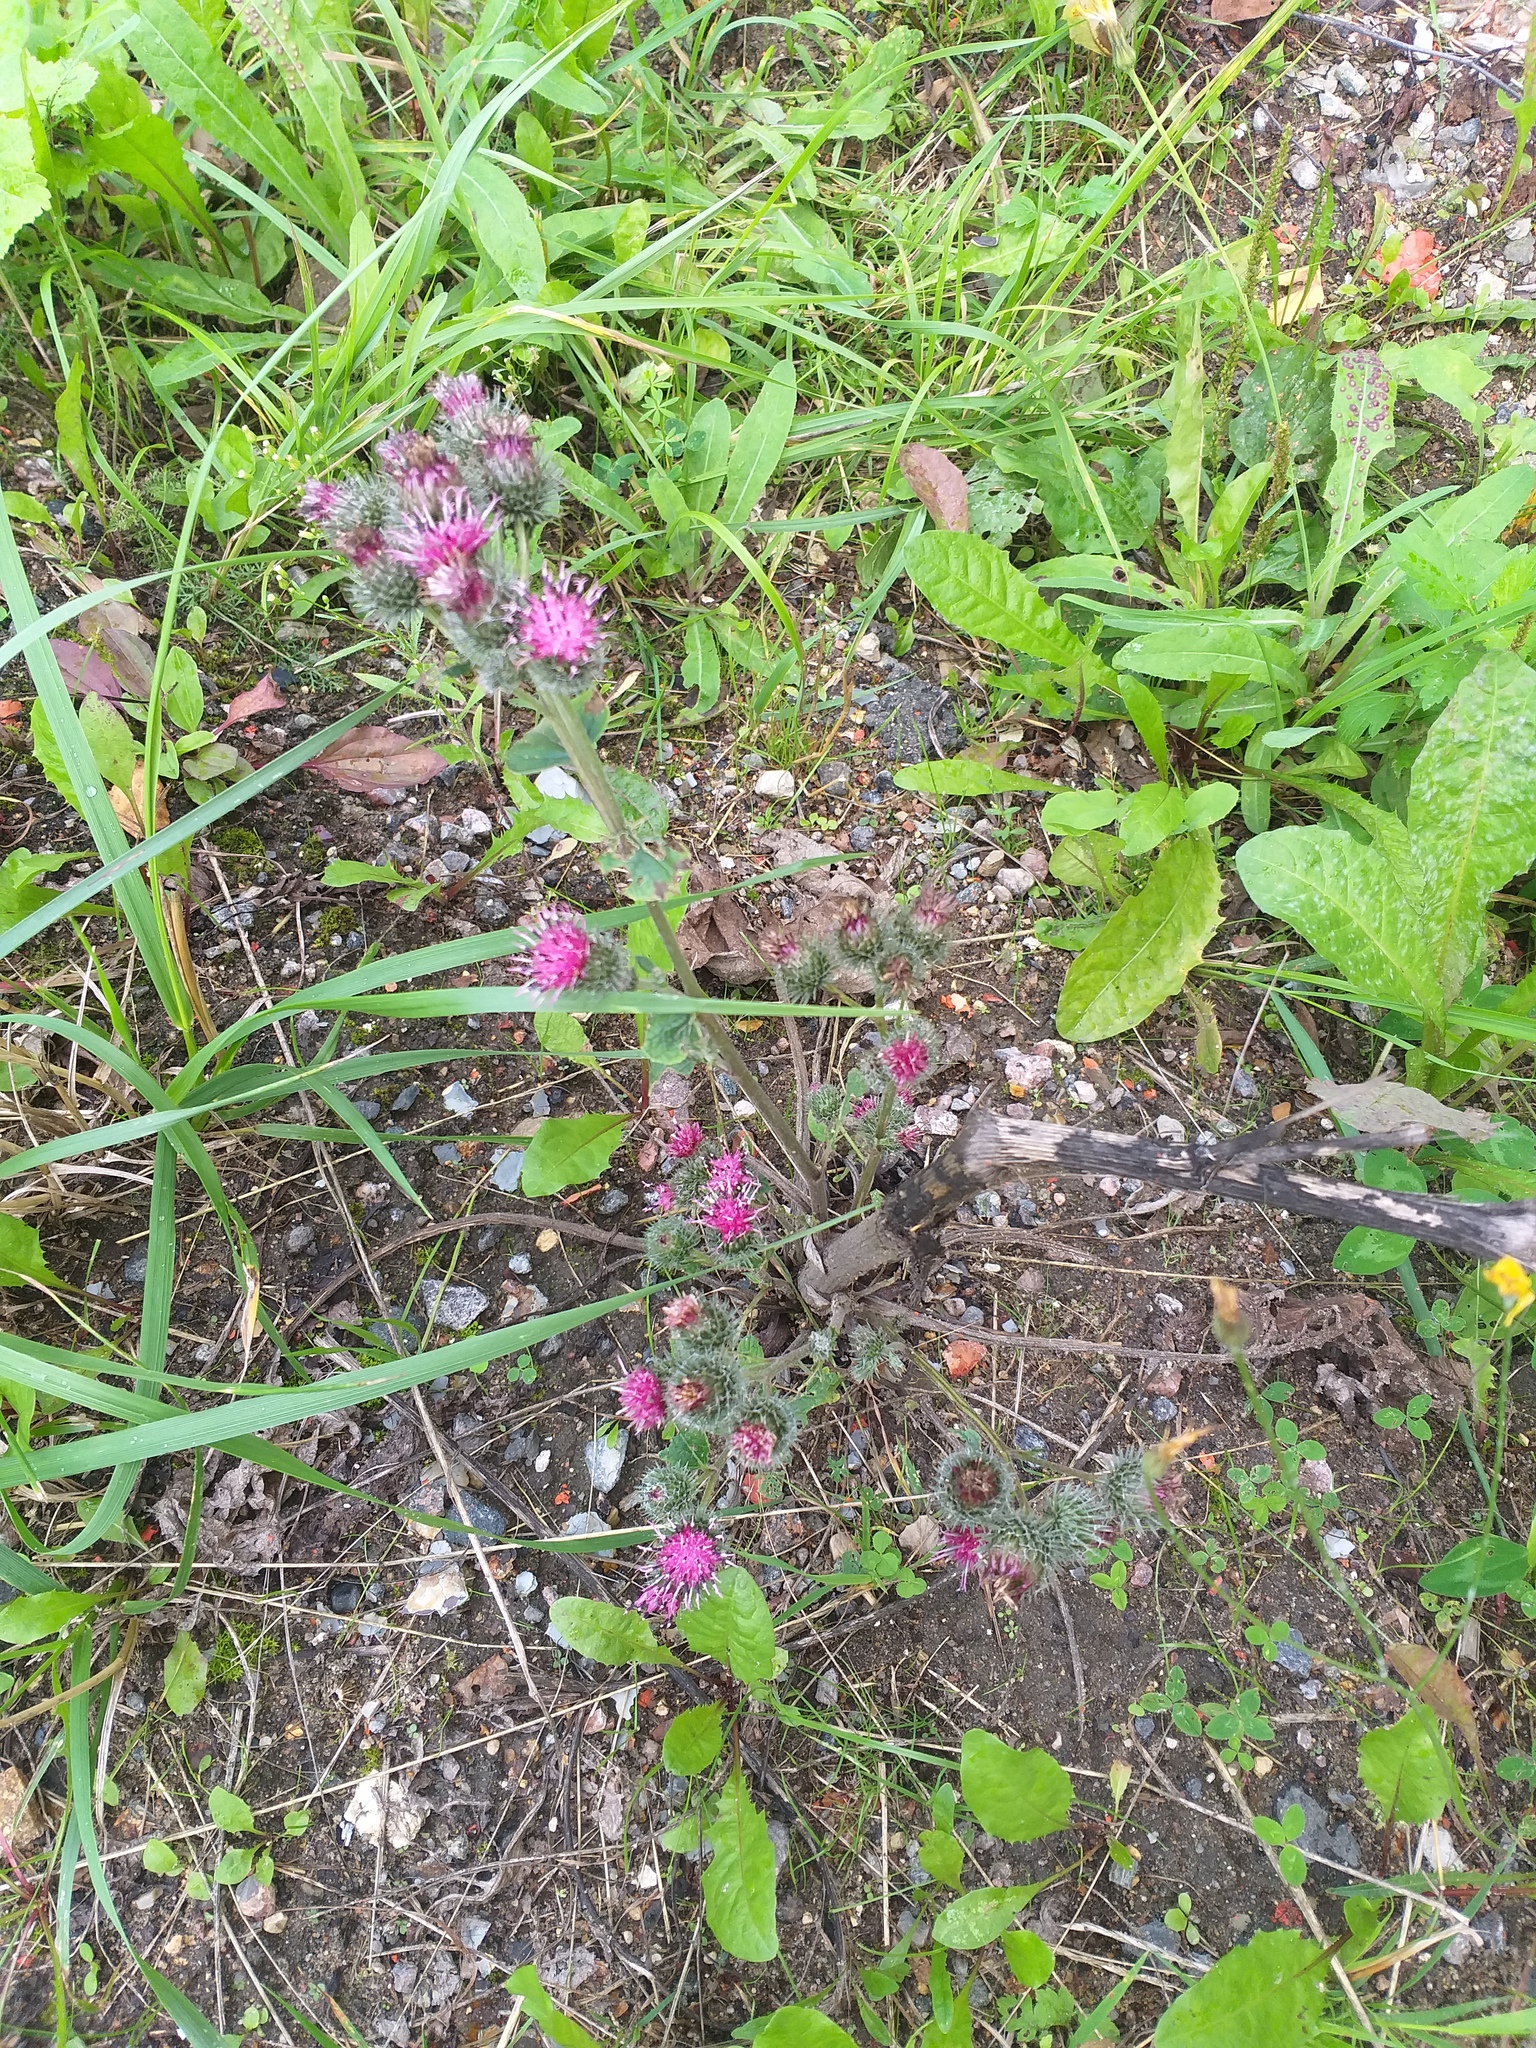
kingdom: Plantae
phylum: Tracheophyta
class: Magnoliopsida
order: Asterales
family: Asteraceae
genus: Arctium
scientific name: Arctium tomentosum
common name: Woolly burdock
